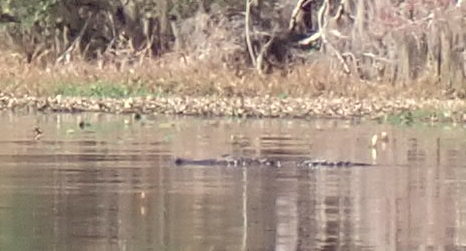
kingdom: Animalia
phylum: Chordata
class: Crocodylia
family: Alligatoridae
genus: Alligator
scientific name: Alligator mississippiensis
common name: American alligator
